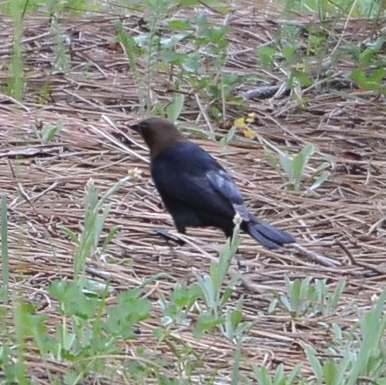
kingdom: Animalia
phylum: Chordata
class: Aves
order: Passeriformes
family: Icteridae
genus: Molothrus
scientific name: Molothrus ater
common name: Brown-headed cowbird
